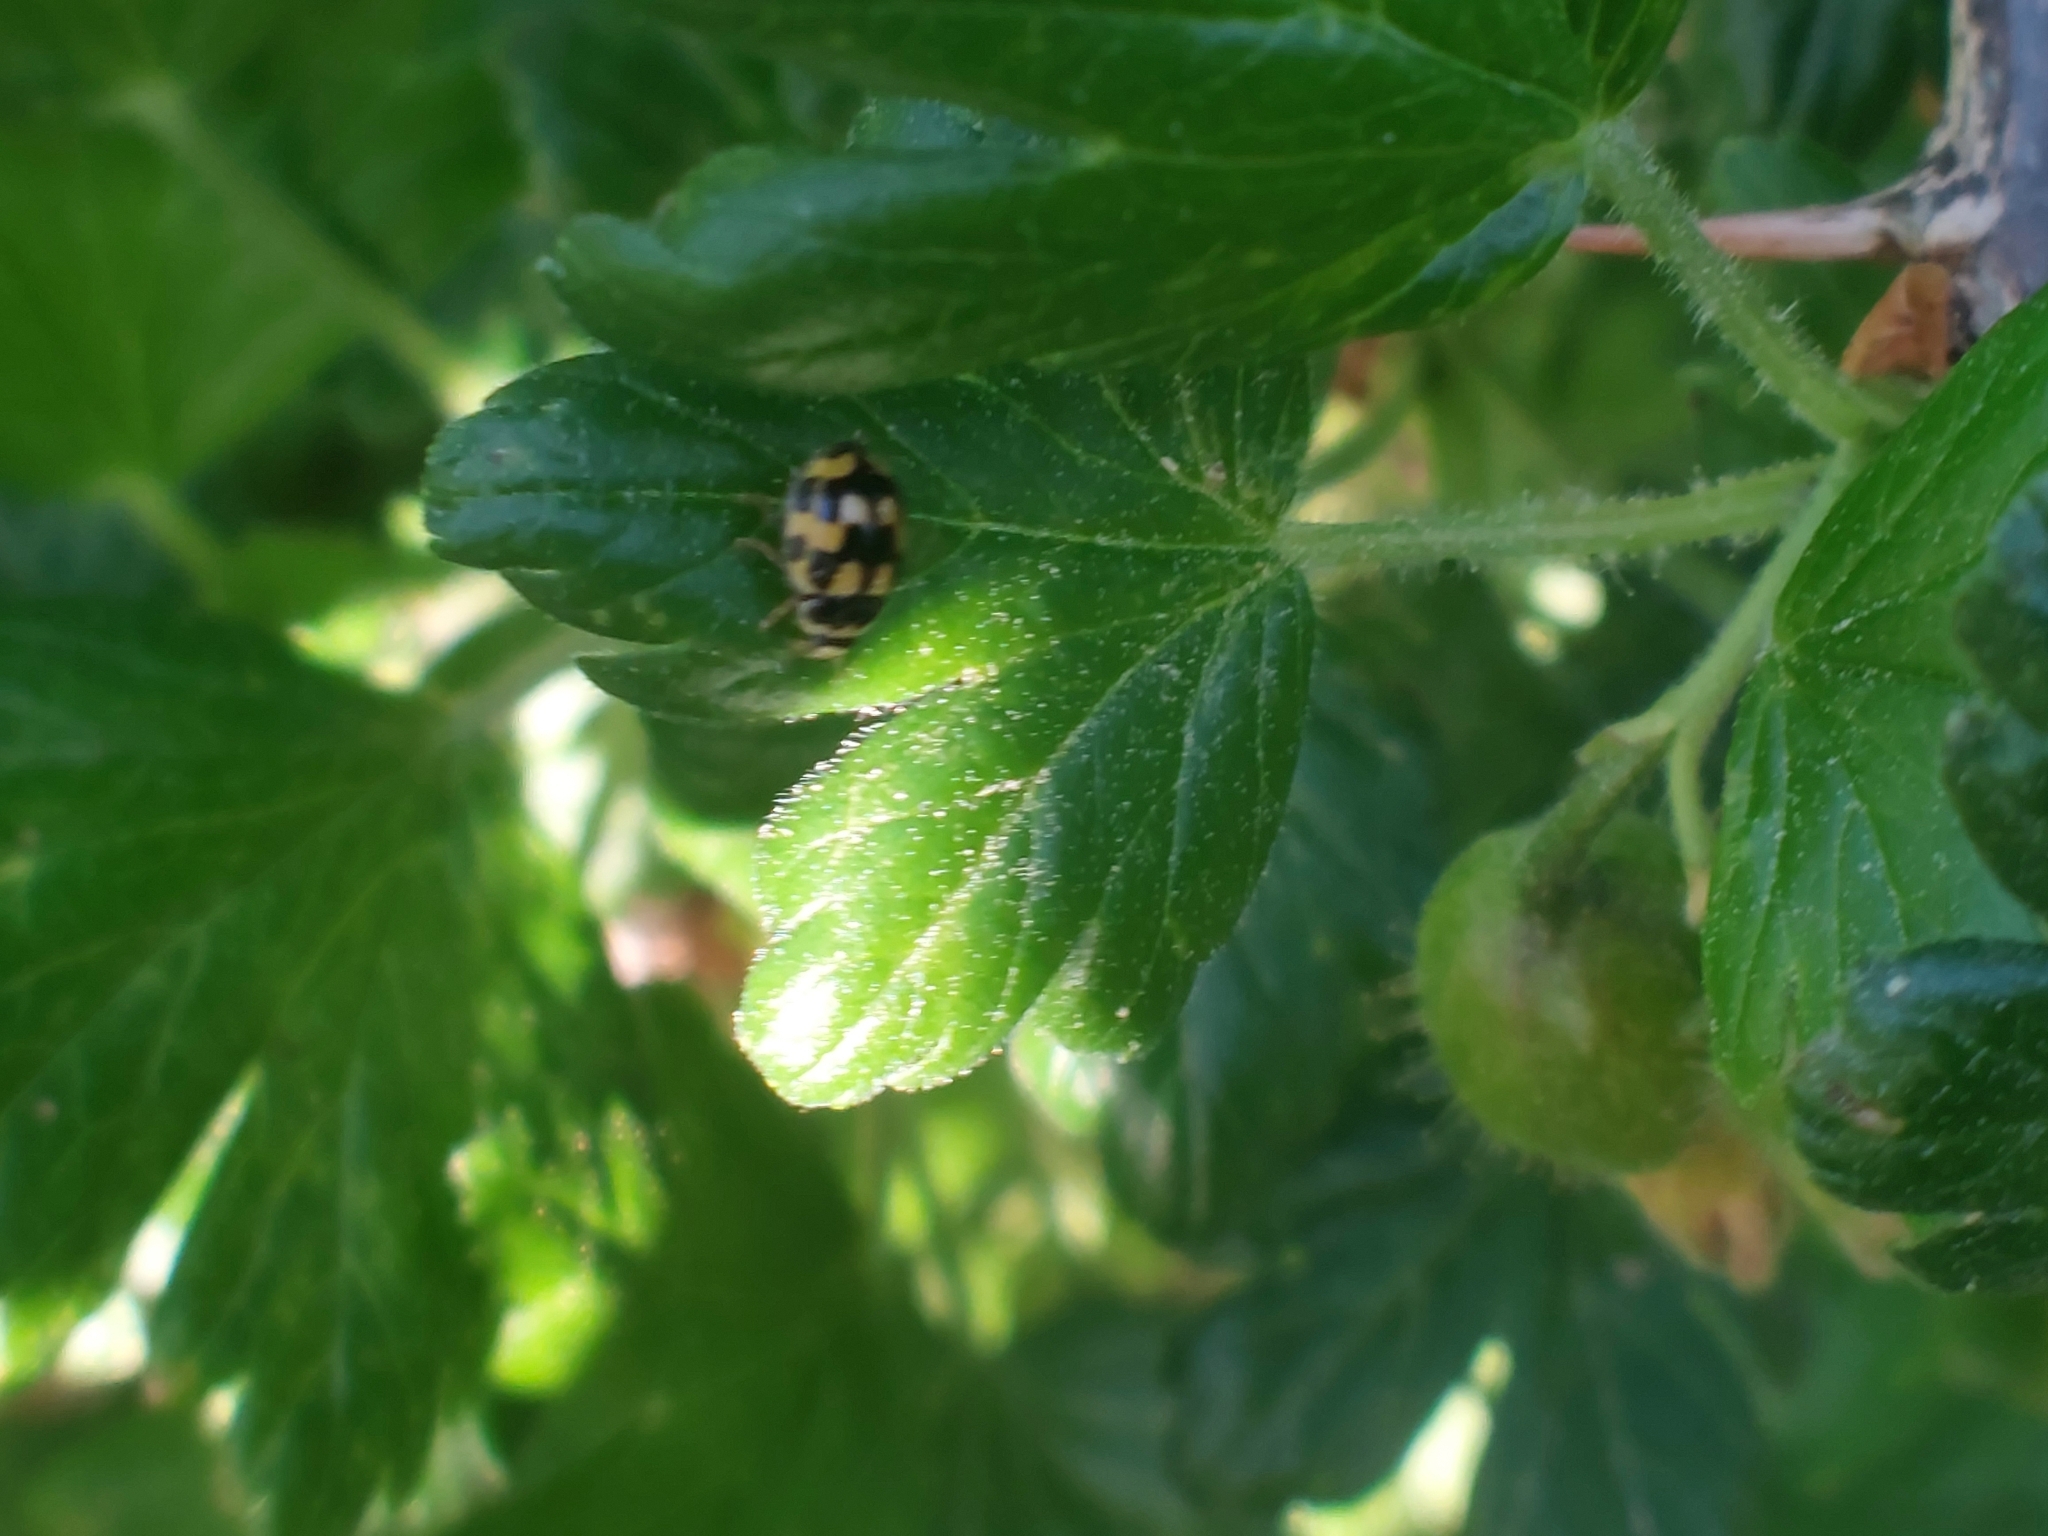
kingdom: Animalia
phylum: Arthropoda
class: Insecta
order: Coleoptera
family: Coccinellidae
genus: Propylaea
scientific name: Propylaea quatuordecimpunctata
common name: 14-spotted ladybird beetle
